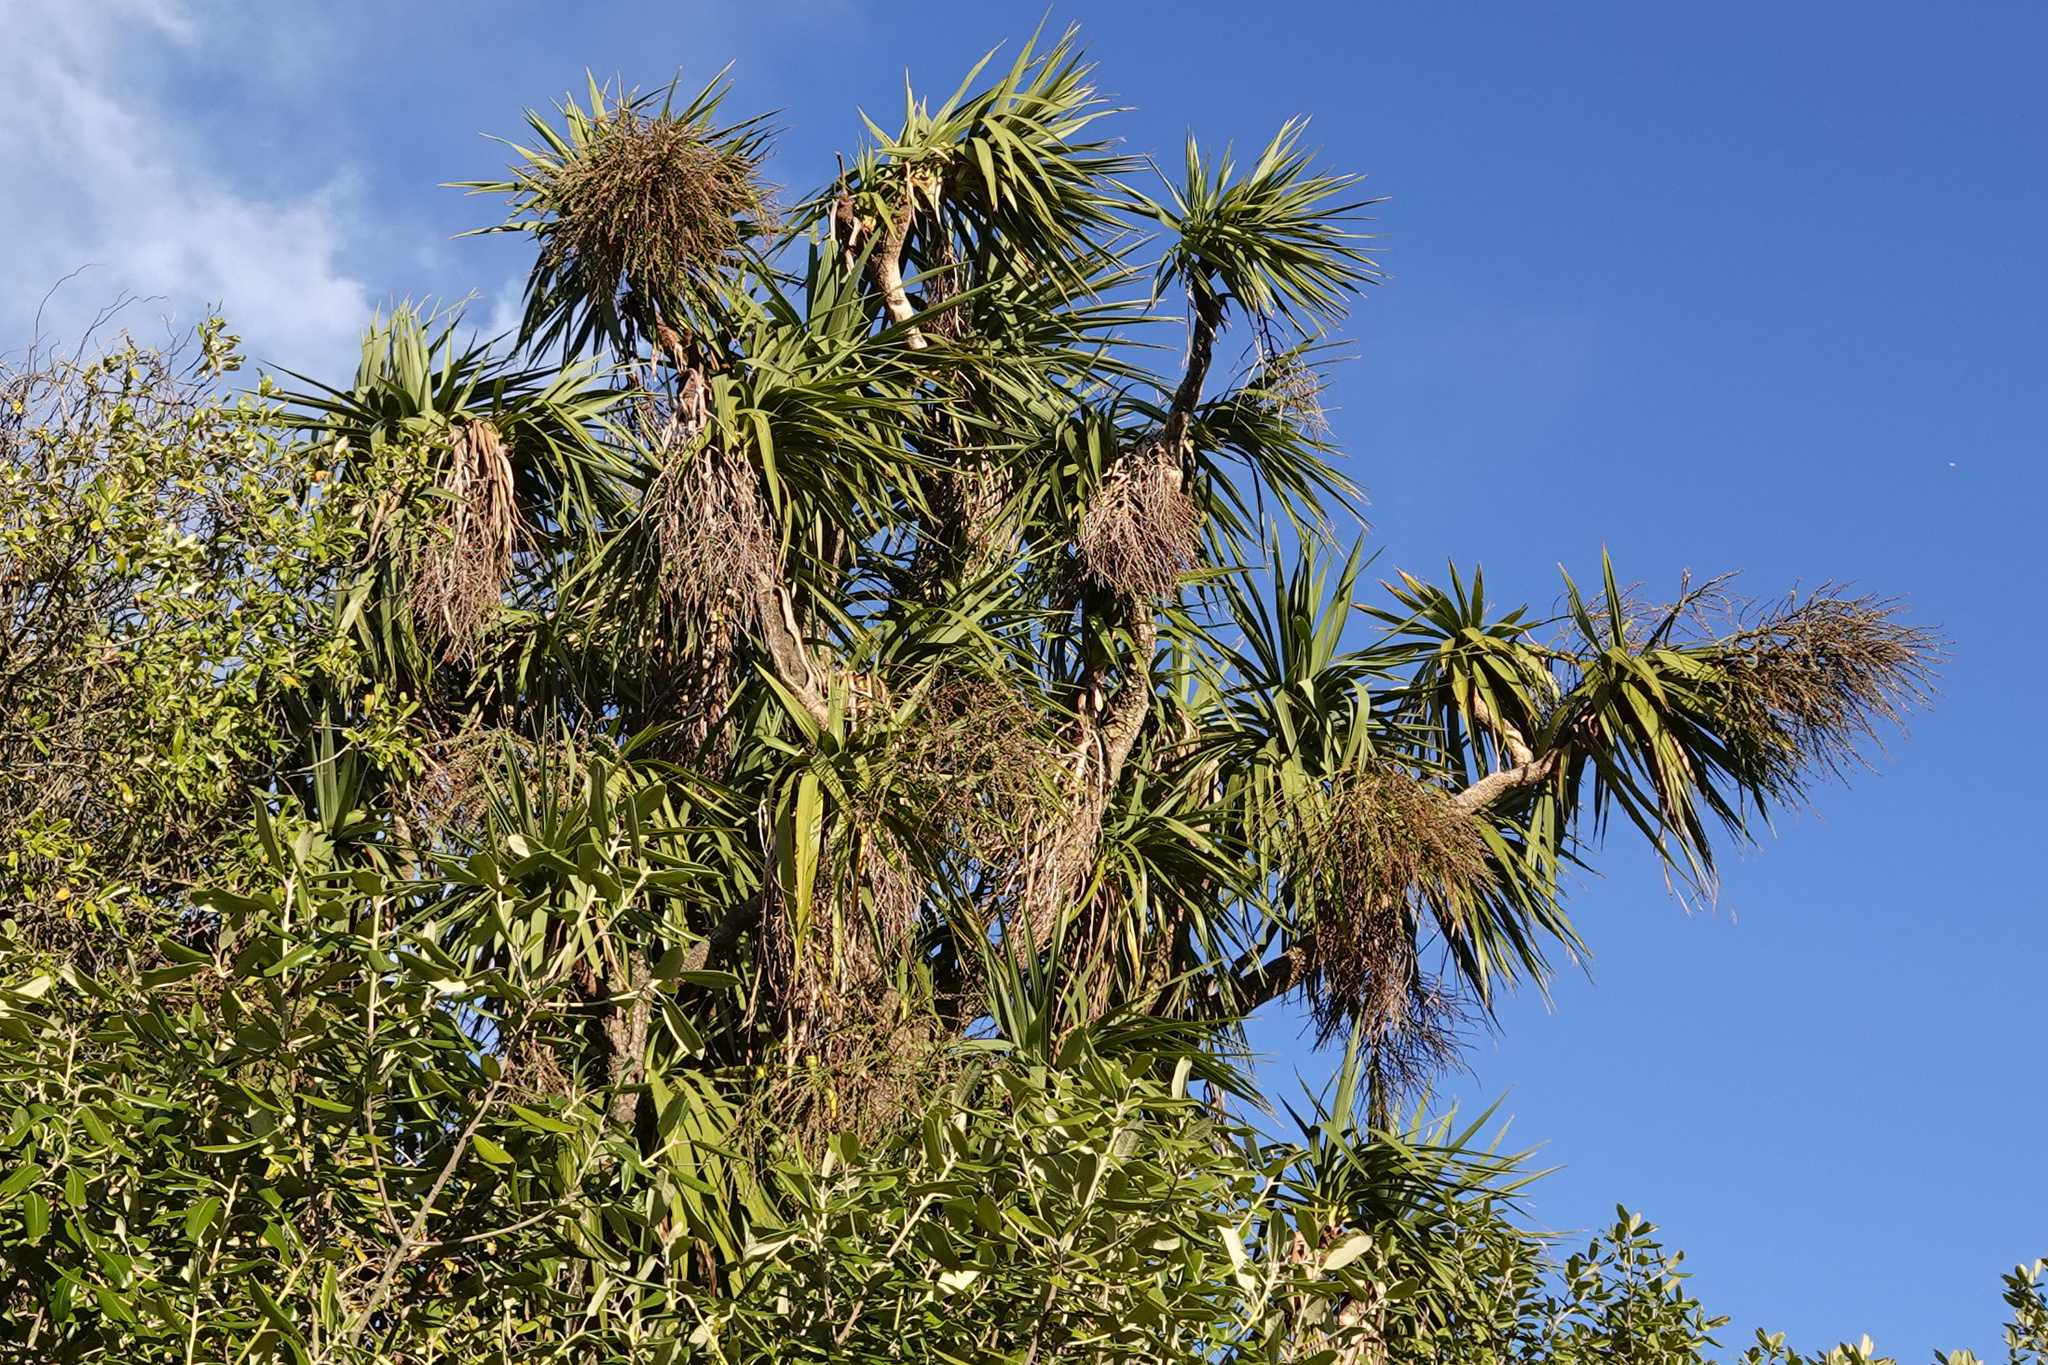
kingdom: Plantae
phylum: Tracheophyta
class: Liliopsida
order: Asparagales
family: Asparagaceae
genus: Cordyline
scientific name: Cordyline australis
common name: Cabbage-palm
